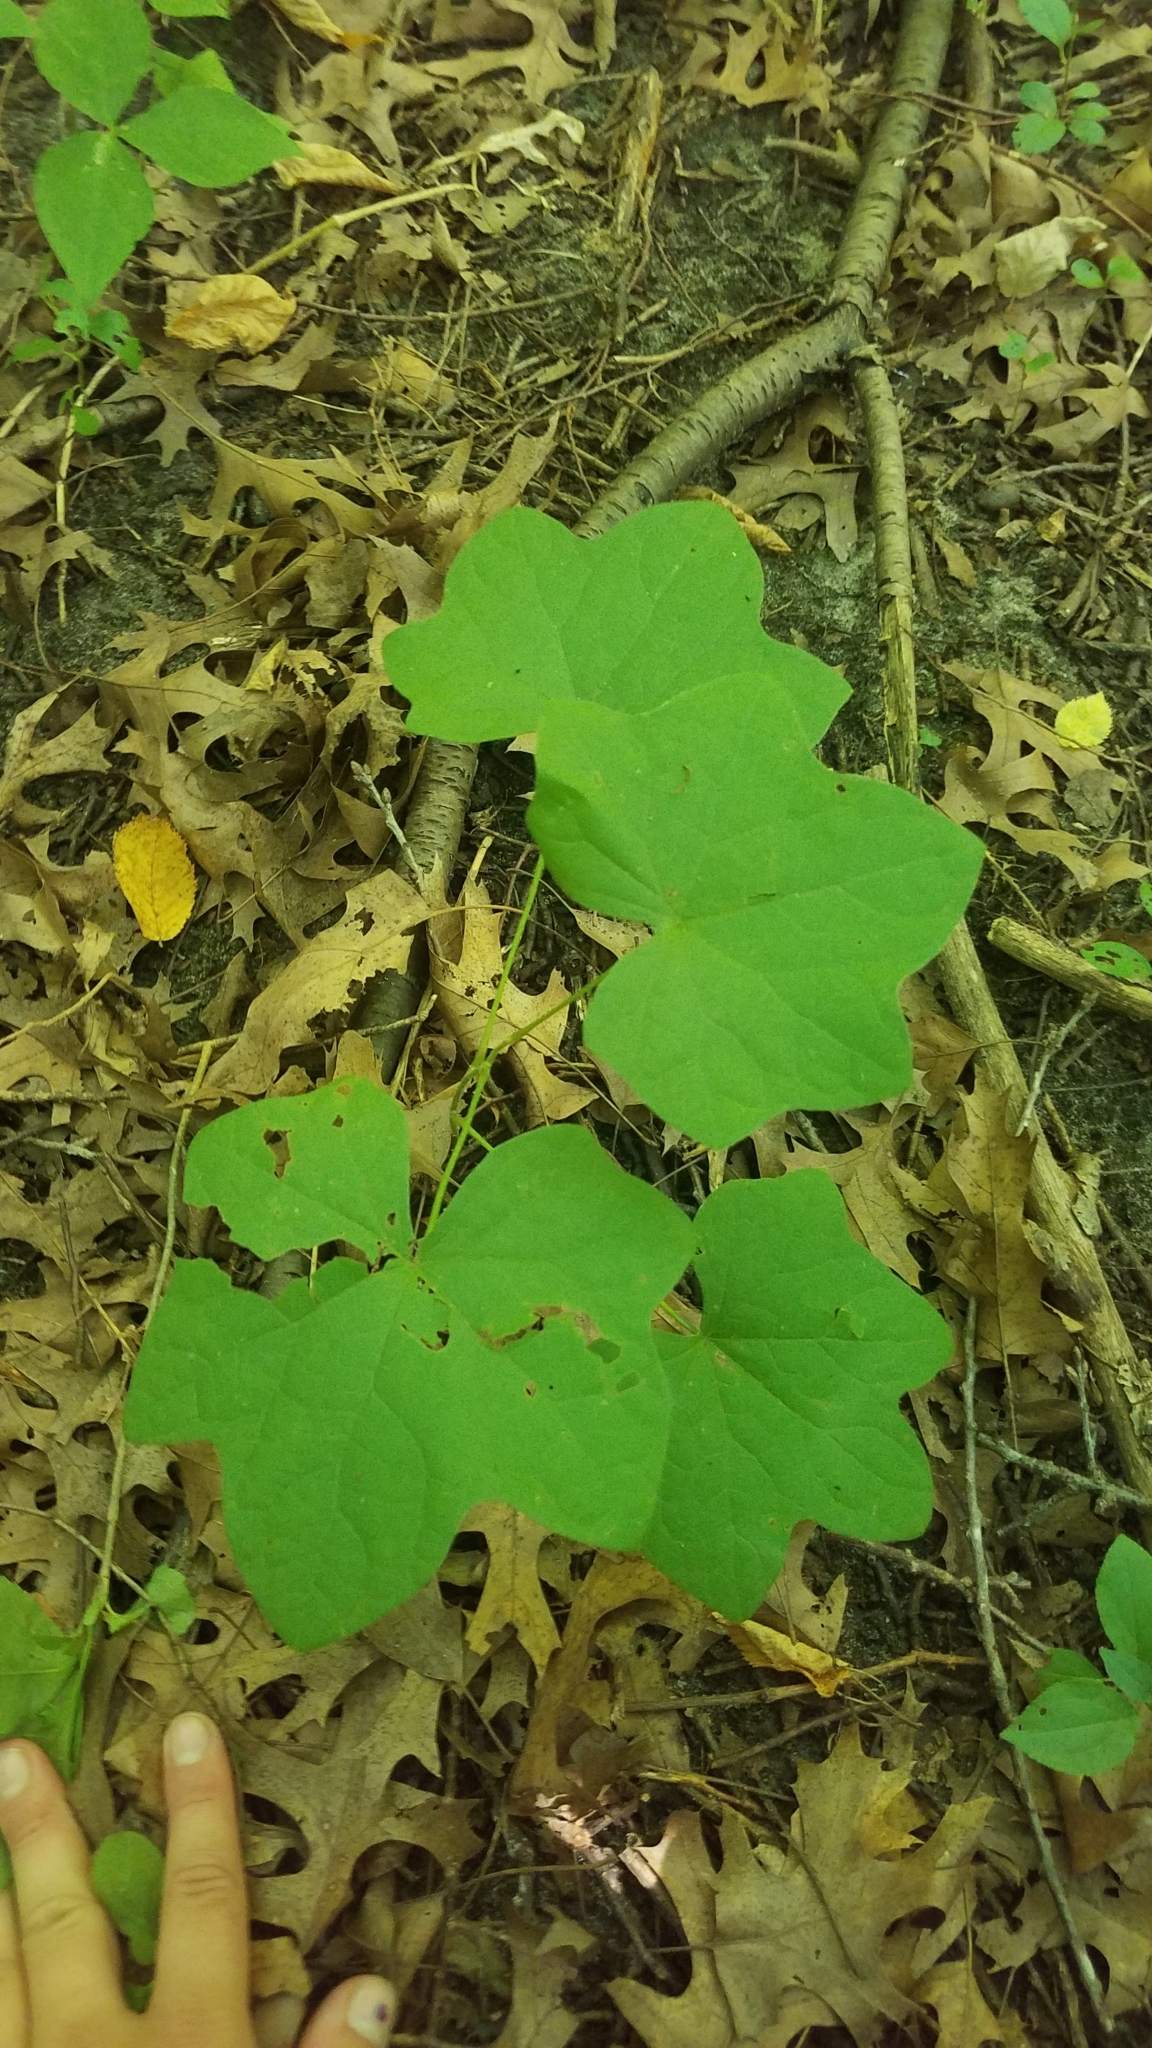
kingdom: Plantae
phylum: Tracheophyta
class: Magnoliopsida
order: Ranunculales
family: Menispermaceae
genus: Menispermum
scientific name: Menispermum canadense
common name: Moonseed
